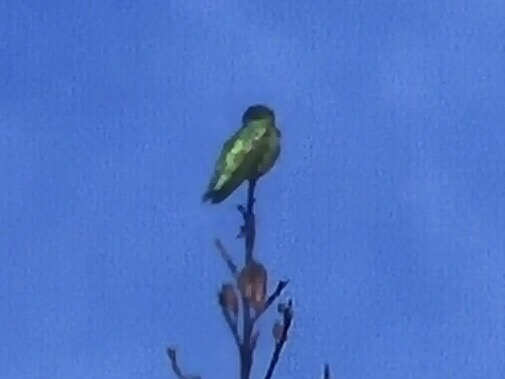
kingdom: Animalia
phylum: Chordata
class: Aves
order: Apodiformes
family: Trochilidae
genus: Calypte
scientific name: Calypte anna
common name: Anna's hummingbird
